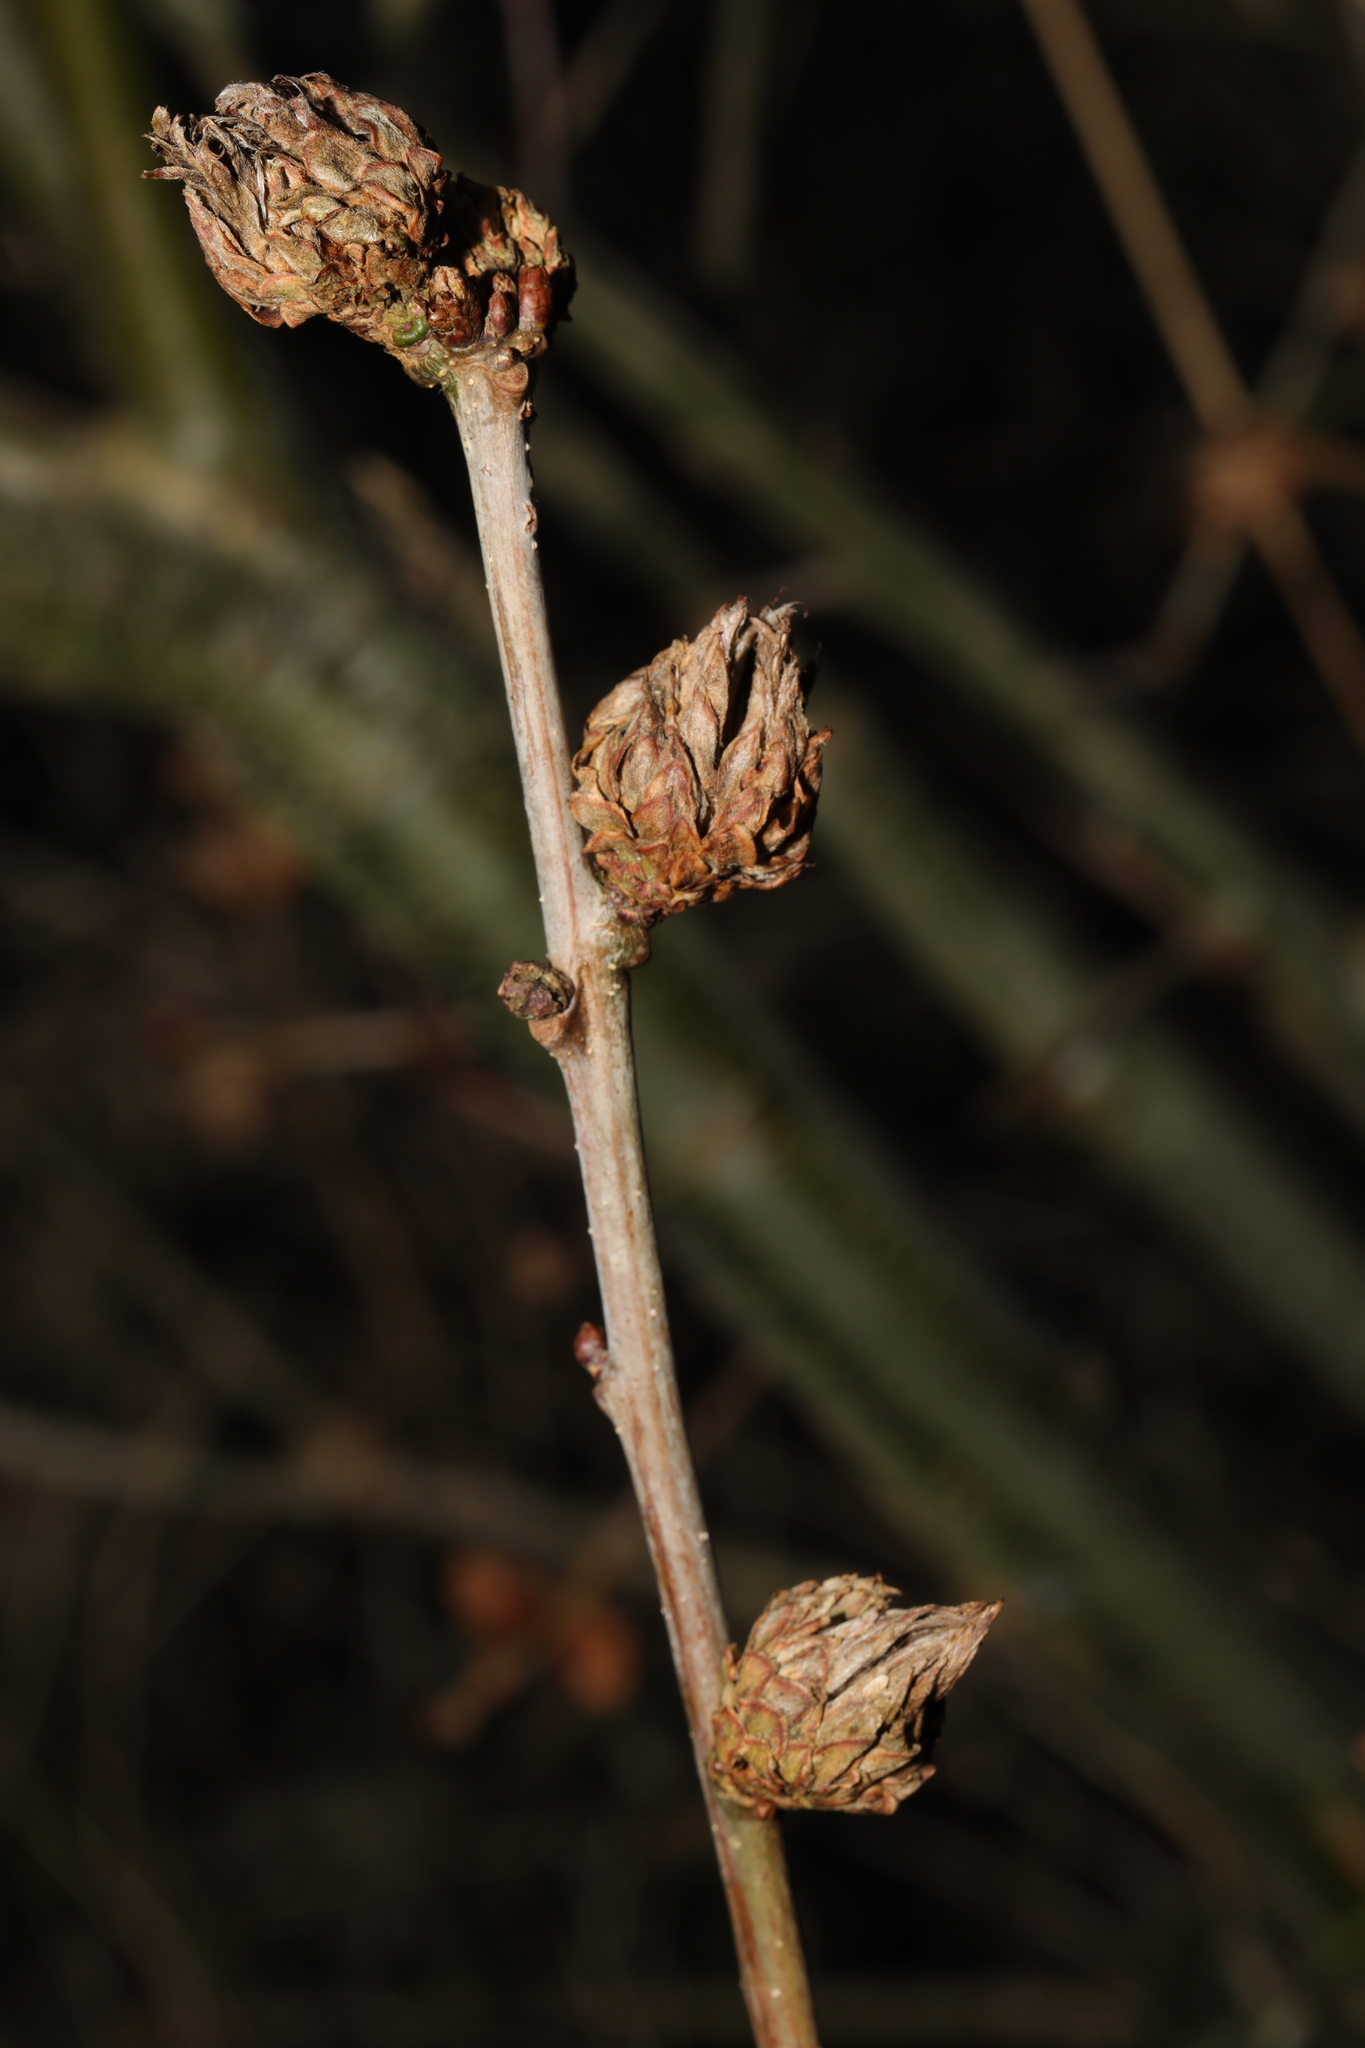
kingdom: Animalia
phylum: Arthropoda
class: Insecta
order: Hymenoptera
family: Cynipidae
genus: Andricus
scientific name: Andricus foecundatrix
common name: Artichoke gall
